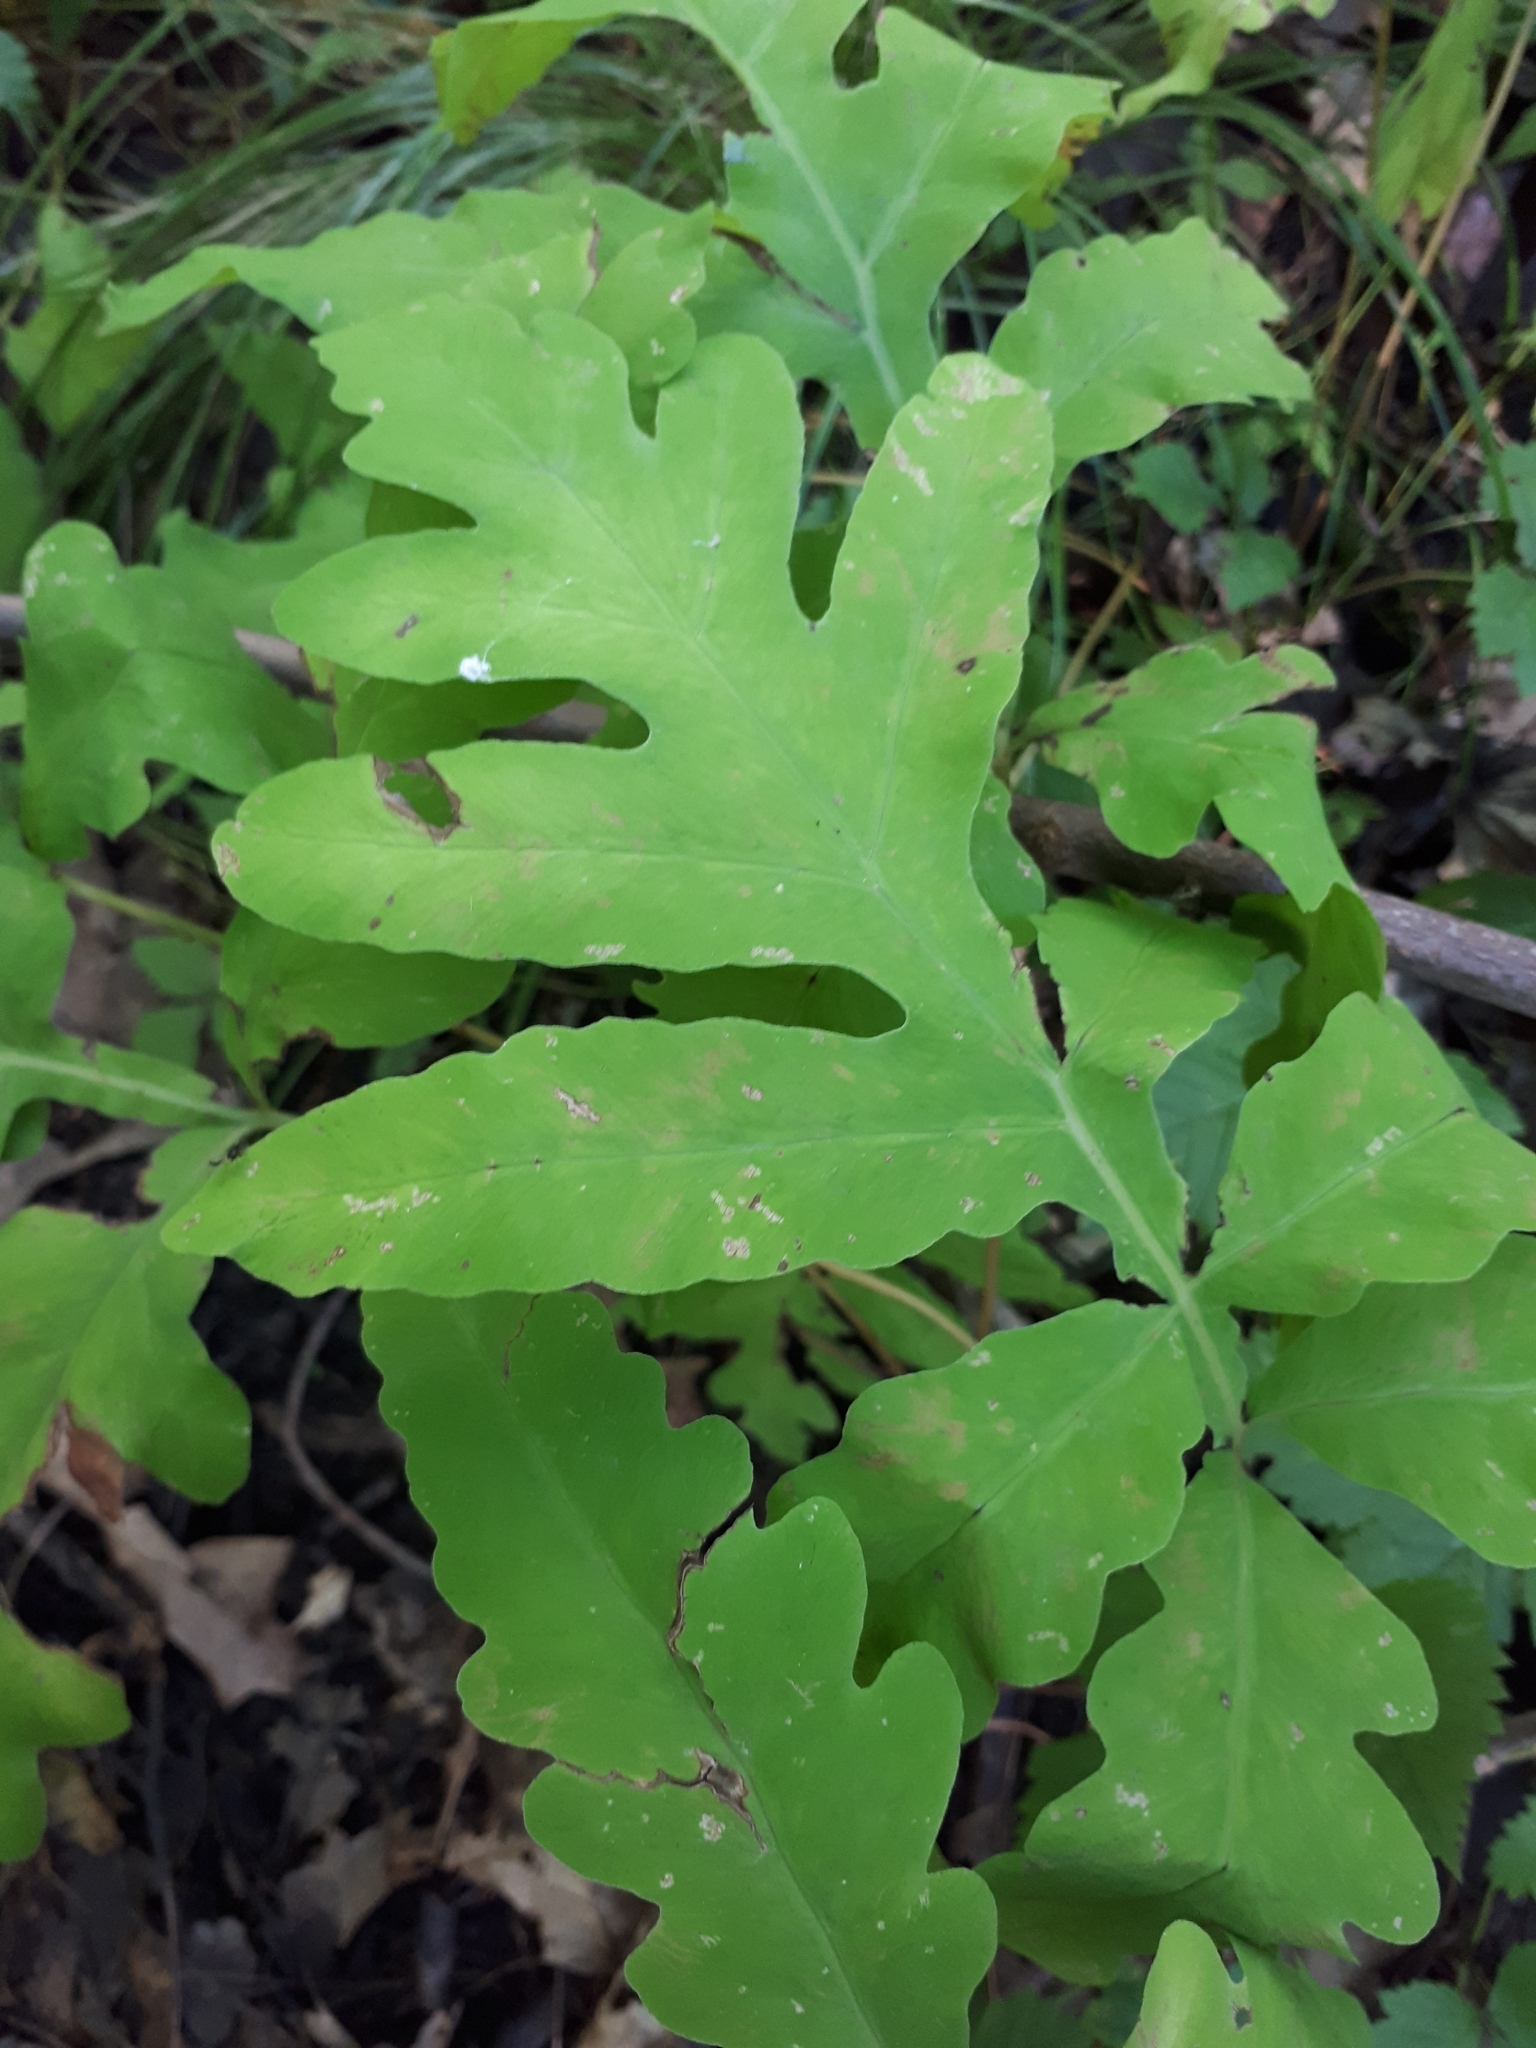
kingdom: Plantae
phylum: Tracheophyta
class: Polypodiopsida
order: Polypodiales
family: Onocleaceae
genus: Onoclea
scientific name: Onoclea sensibilis
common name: Sensitive fern
